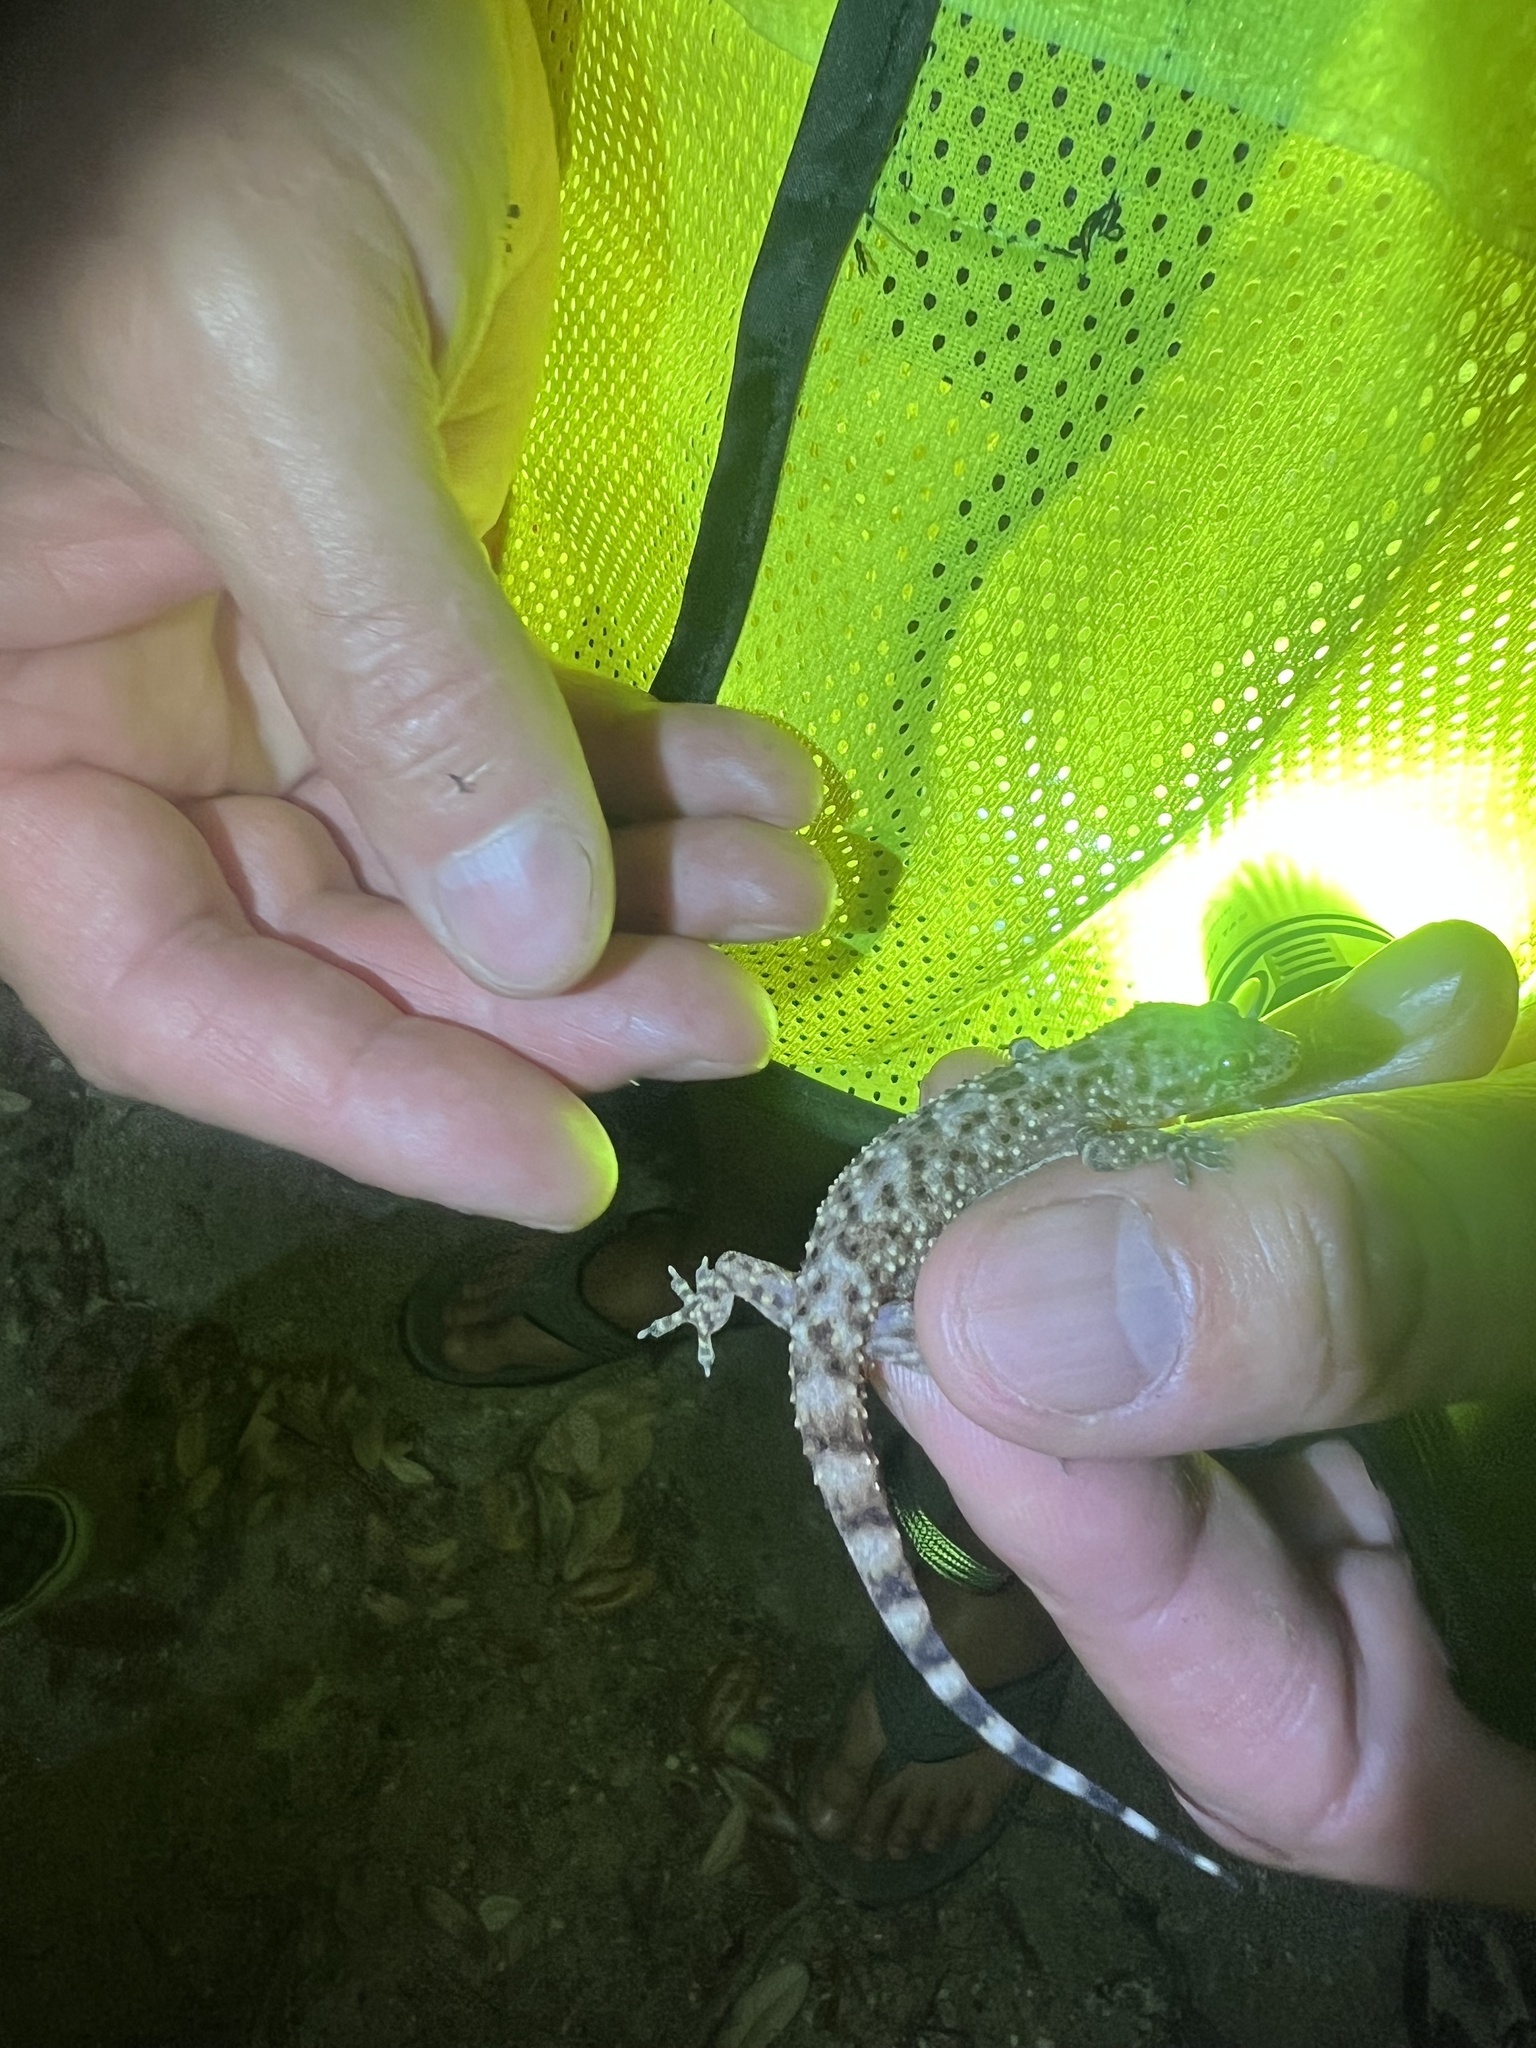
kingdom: Animalia
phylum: Chordata
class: Squamata
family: Gekkonidae
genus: Hemidactylus
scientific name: Hemidactylus turcicus
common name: Turkish gecko
